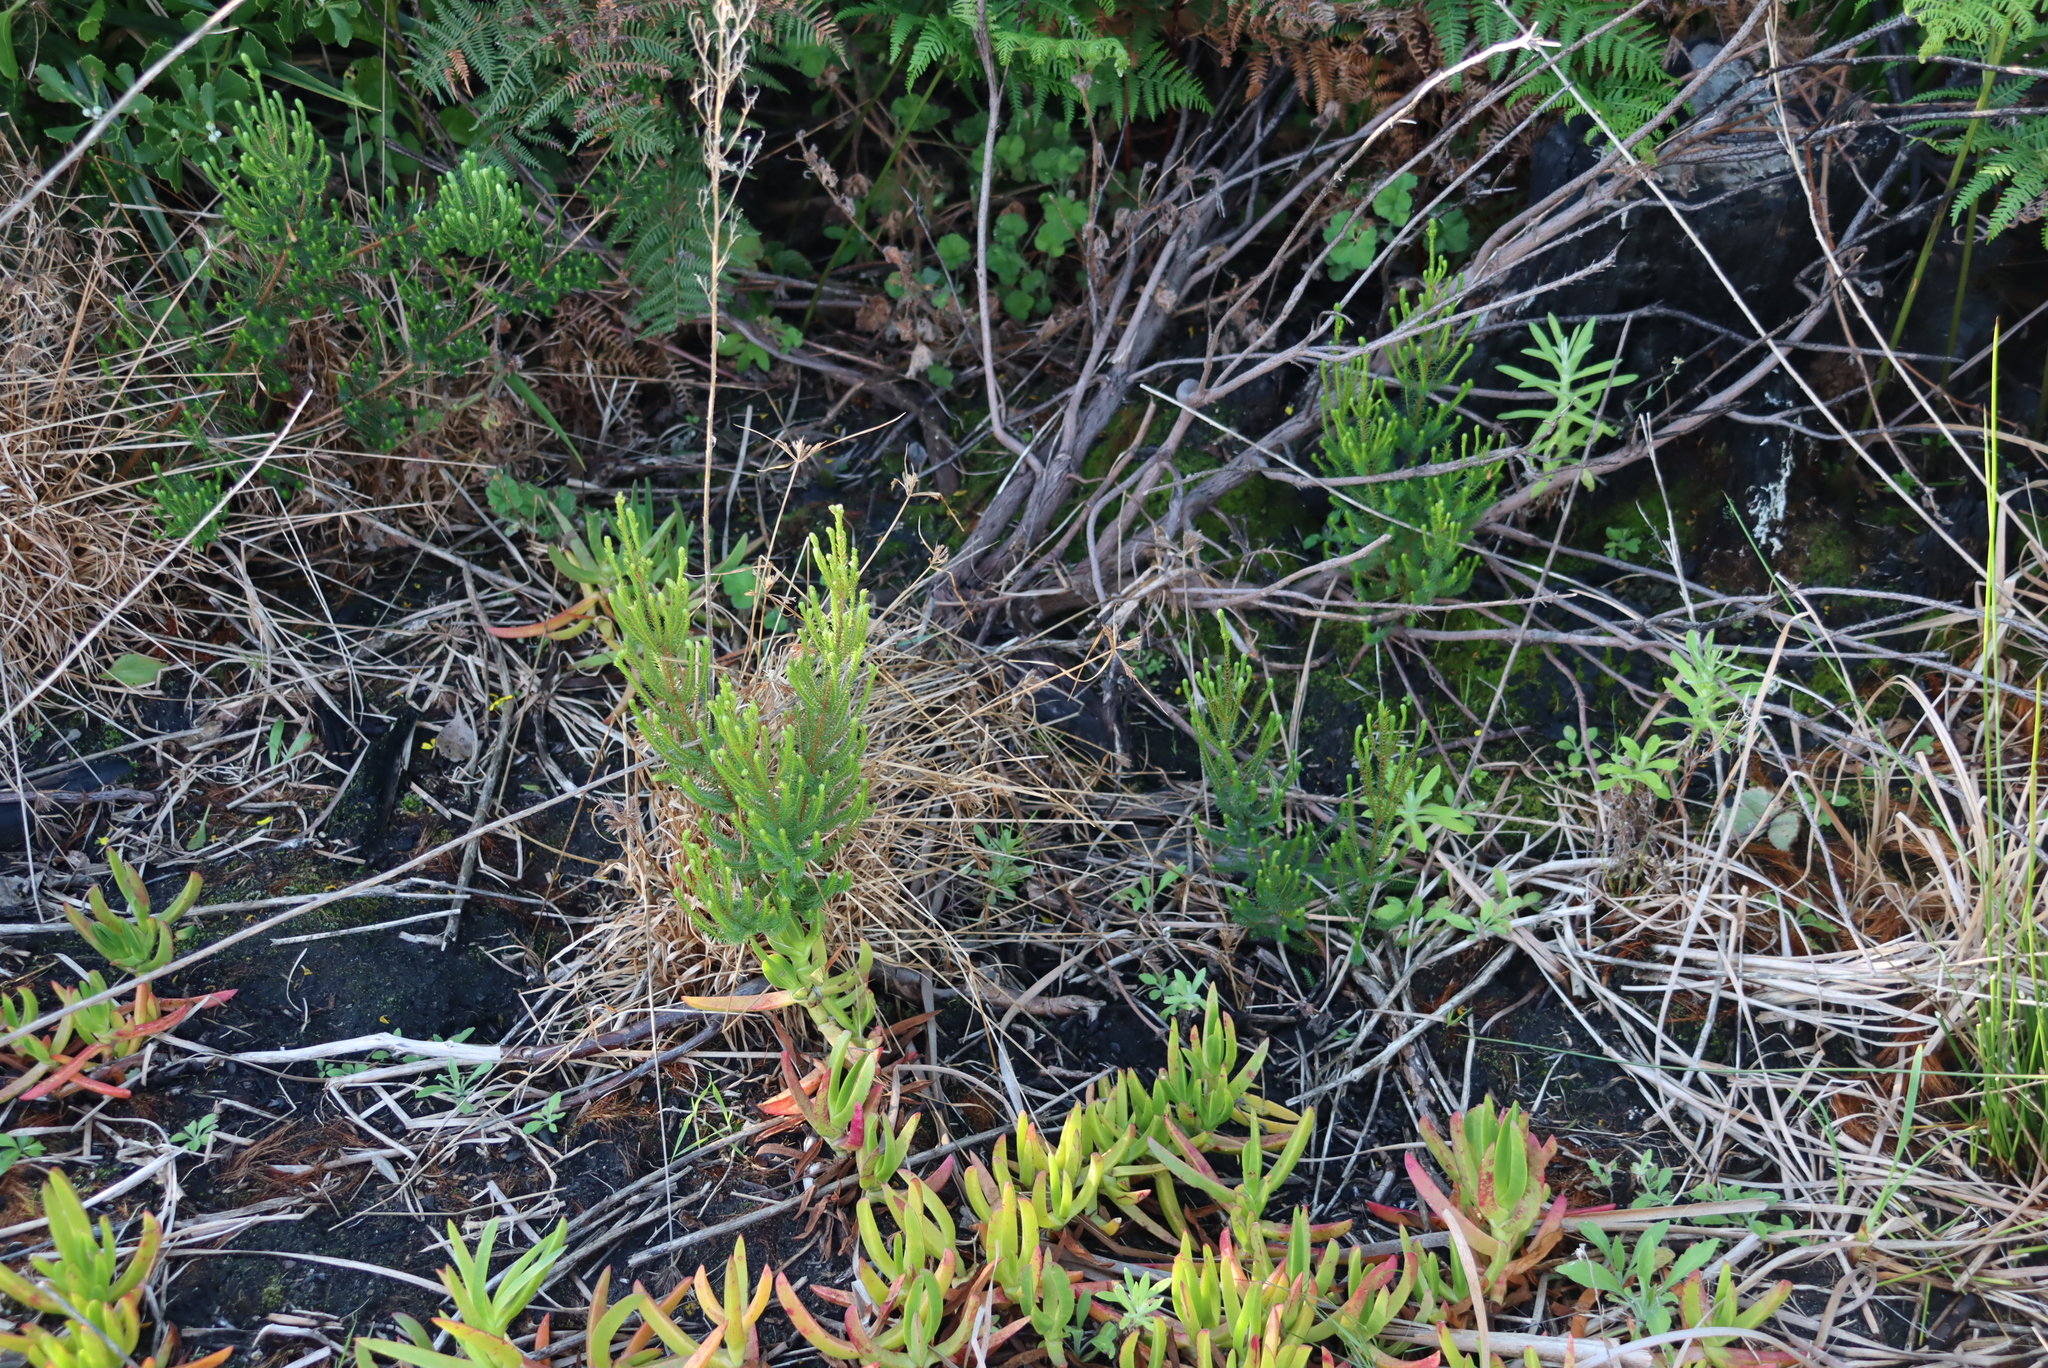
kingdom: Plantae
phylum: Tracheophyta
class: Magnoliopsida
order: Ericales
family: Ericaceae
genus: Erica
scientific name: Erica verticillata
